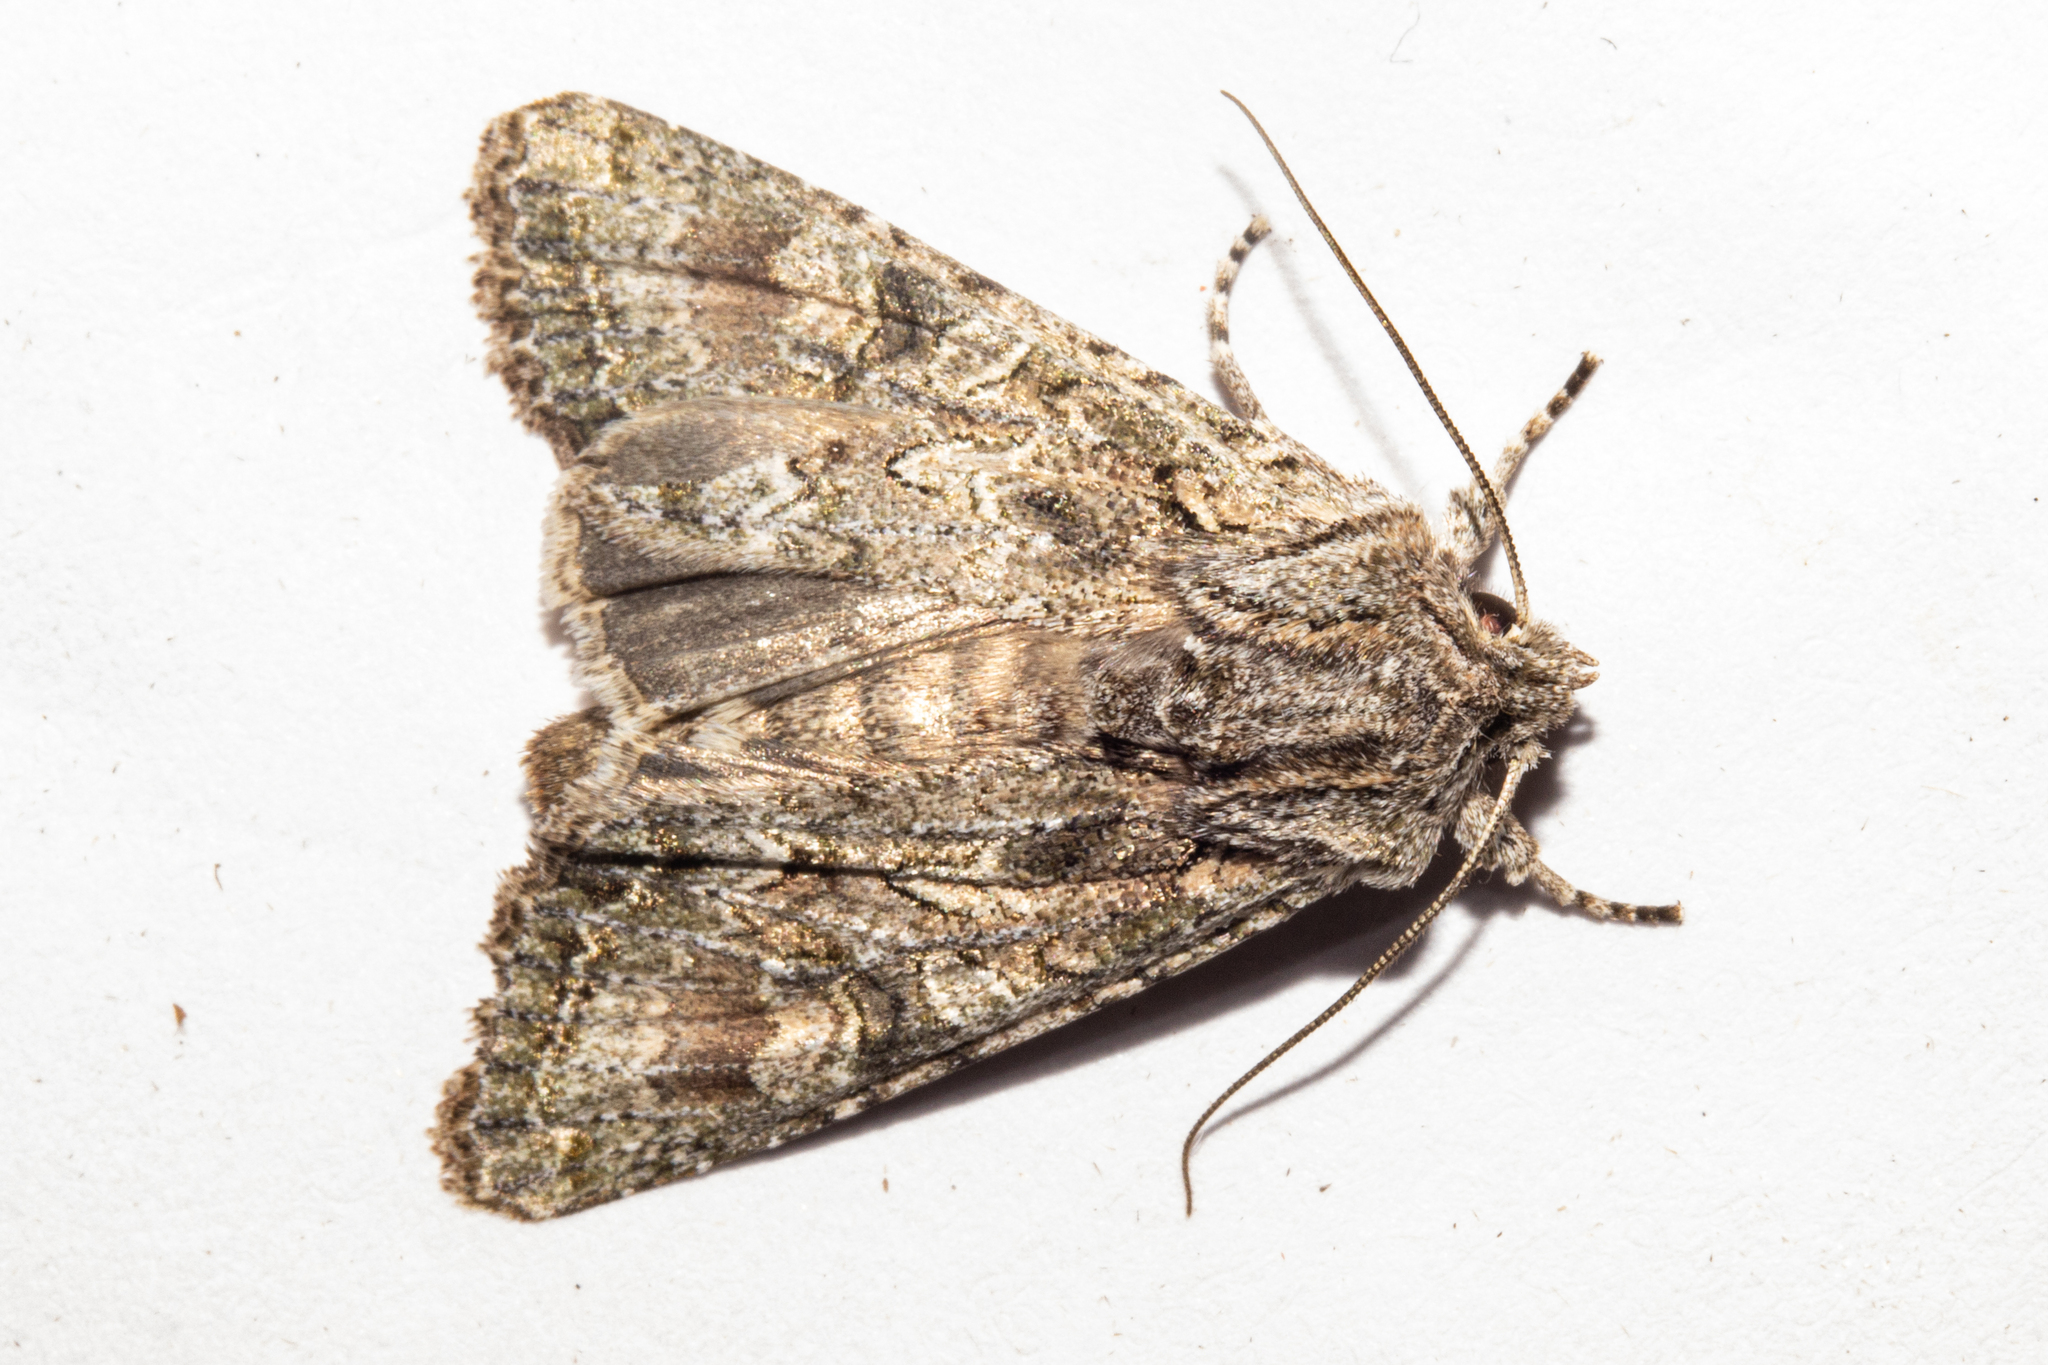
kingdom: Animalia
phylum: Arthropoda
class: Insecta
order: Lepidoptera
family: Noctuidae
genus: Ichneutica
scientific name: Ichneutica mutans
